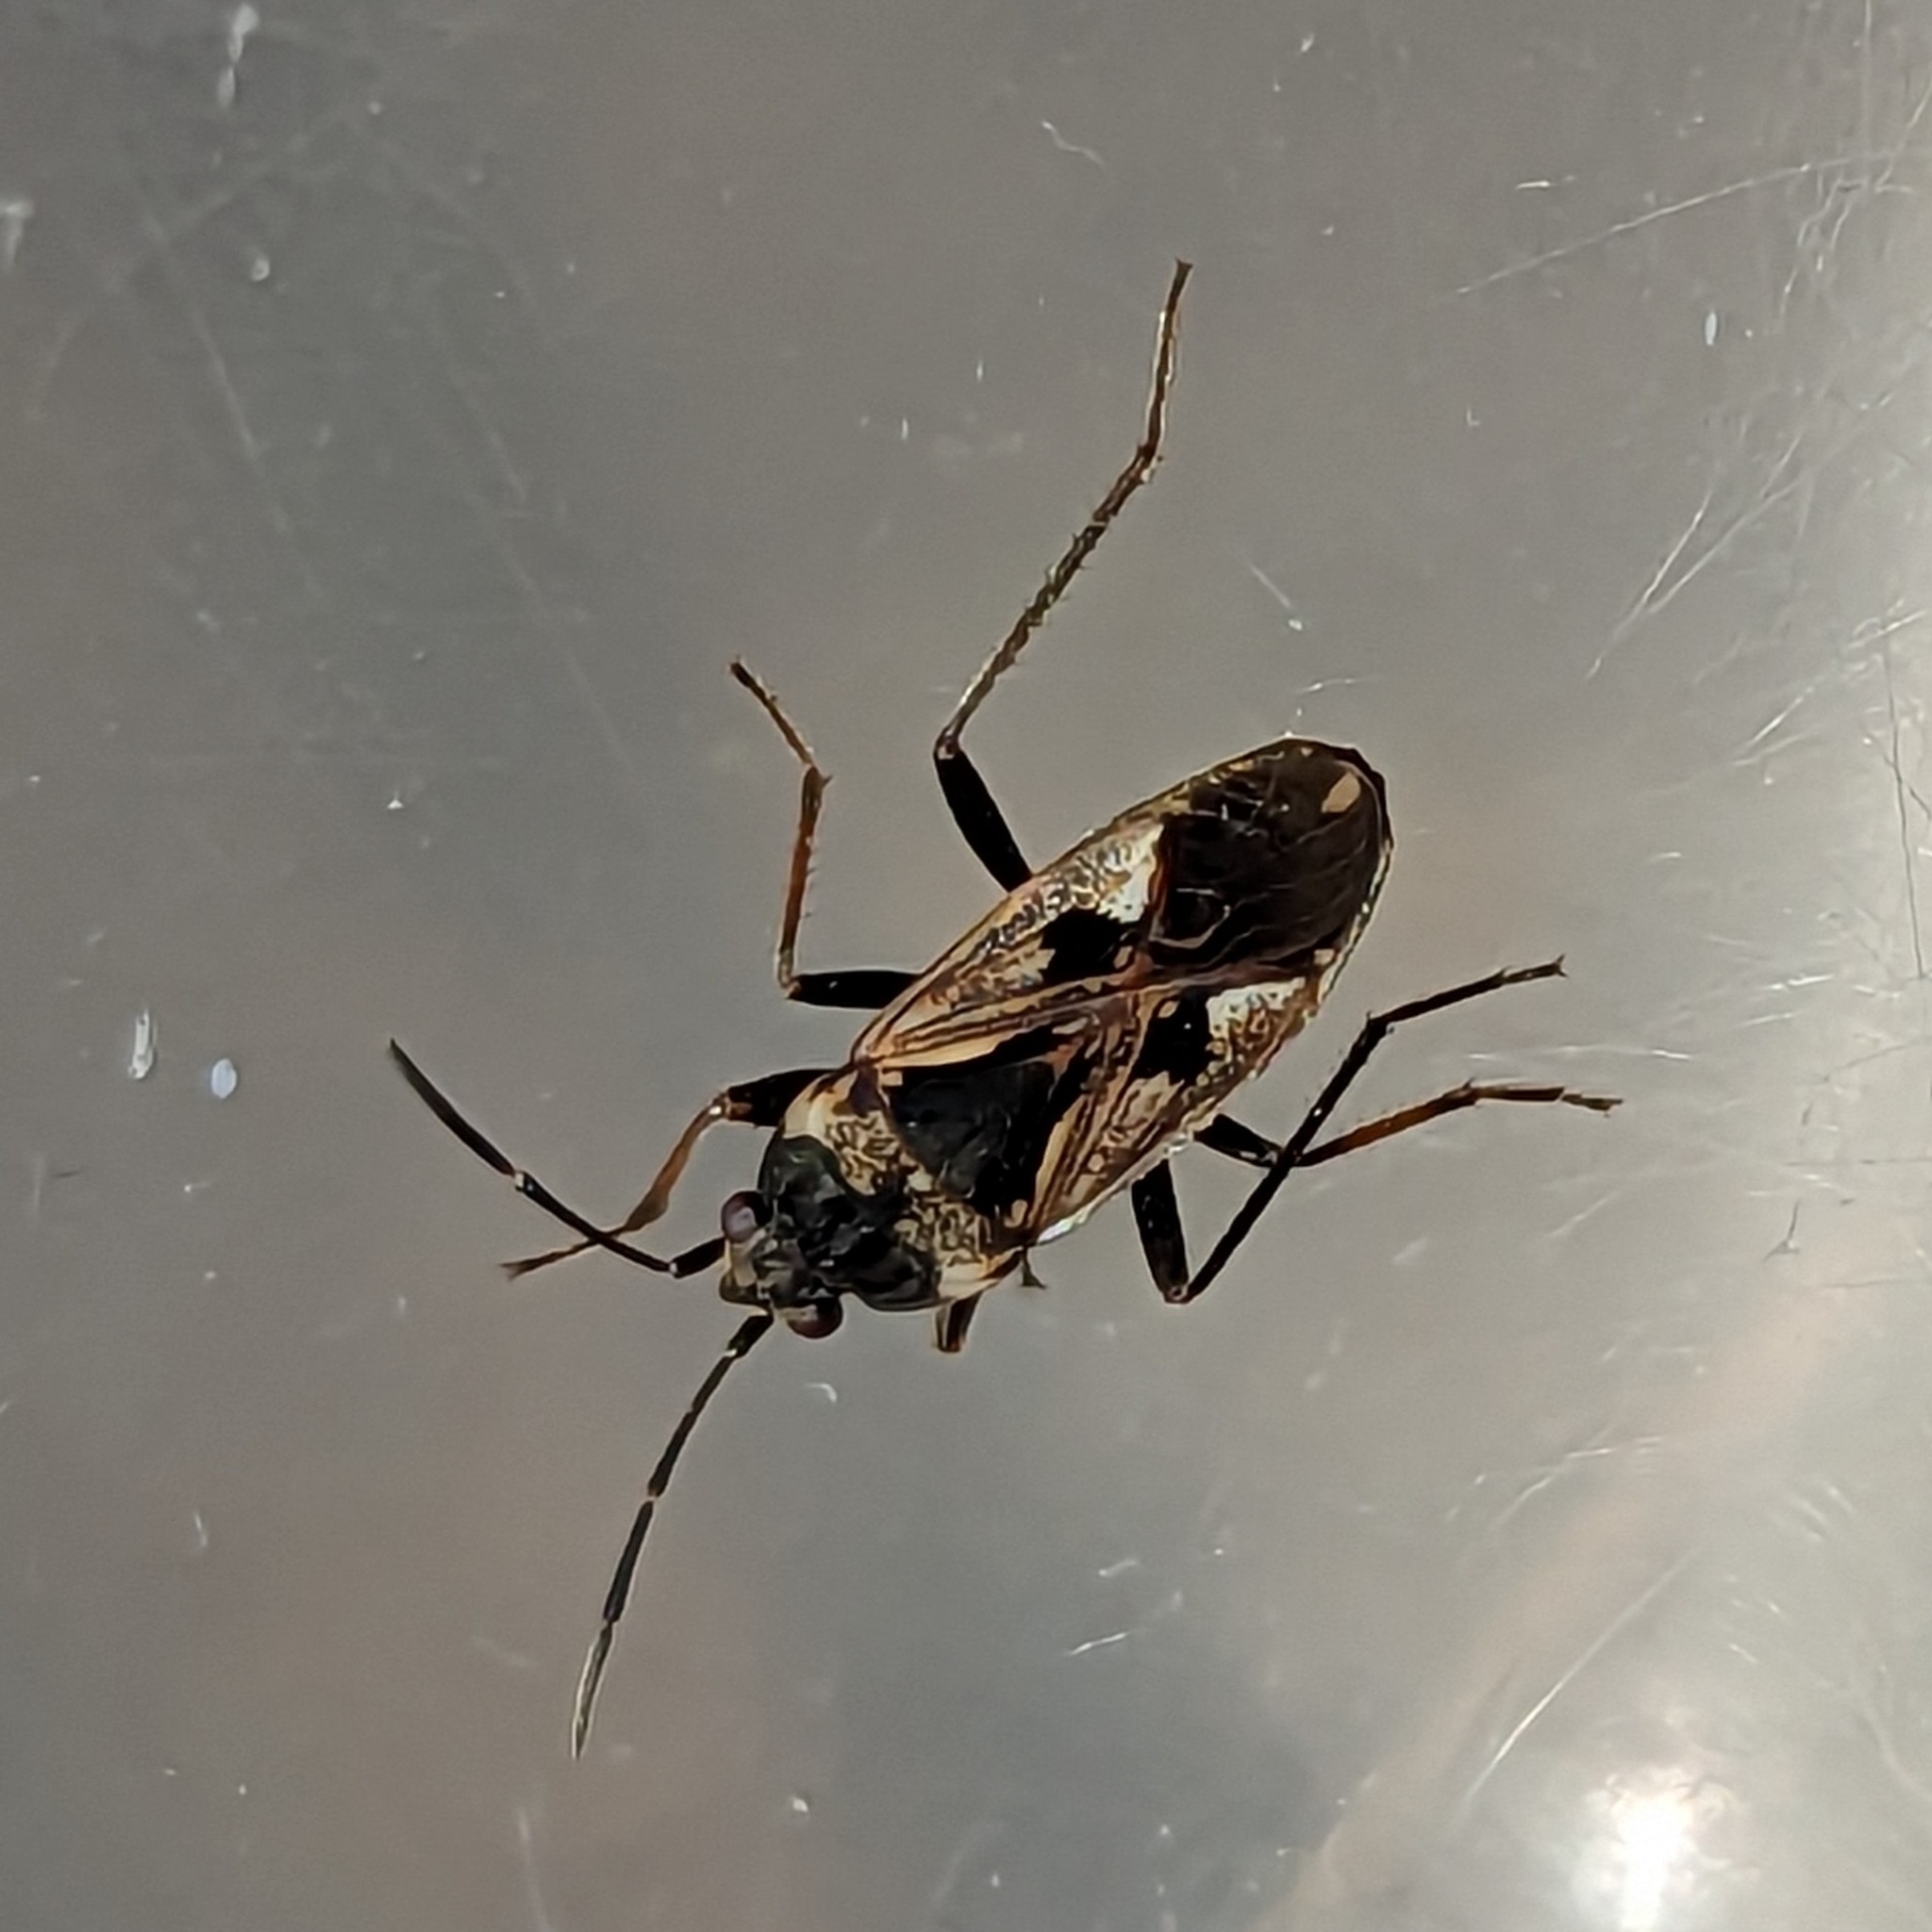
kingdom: Animalia
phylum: Arthropoda
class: Insecta
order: Hemiptera
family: Rhyparochromidae
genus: Rhyparochromus
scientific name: Rhyparochromus vulgaris
